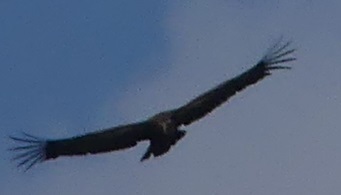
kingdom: Animalia
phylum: Chordata
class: Aves
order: Accipitriformes
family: Accipitridae
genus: Gyps
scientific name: Gyps fulvus
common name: Griffon vulture
